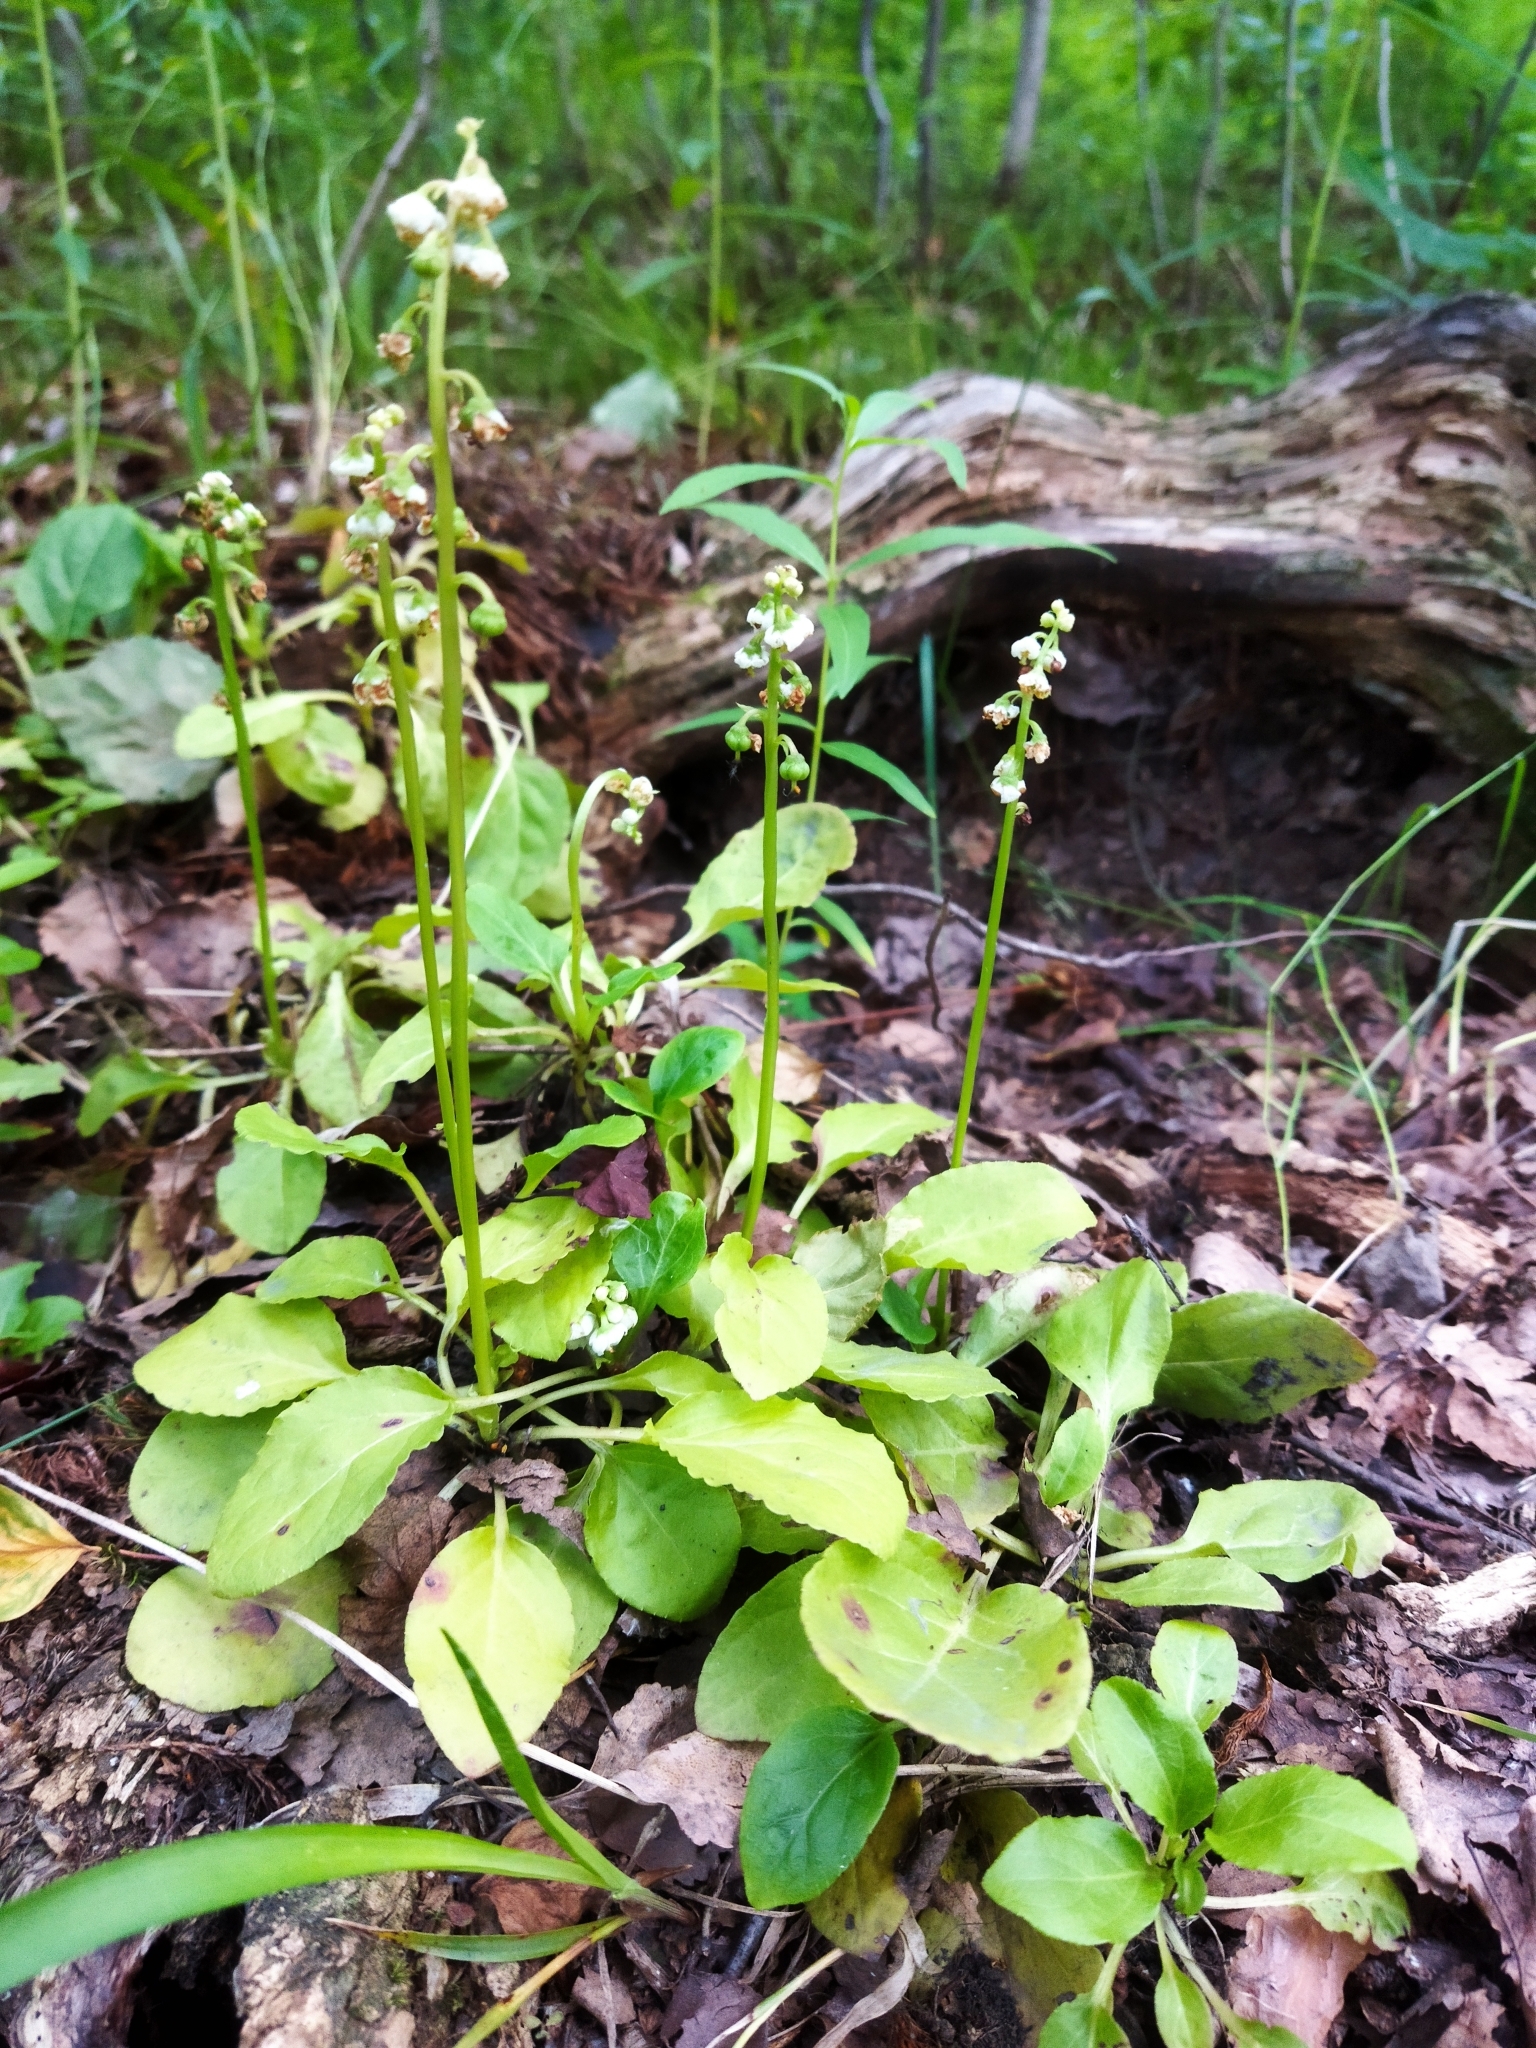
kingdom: Plantae
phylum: Tracheophyta
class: Magnoliopsida
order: Ericales
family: Ericaceae
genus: Pyrola
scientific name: Pyrola minor
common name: Common wintergreen
